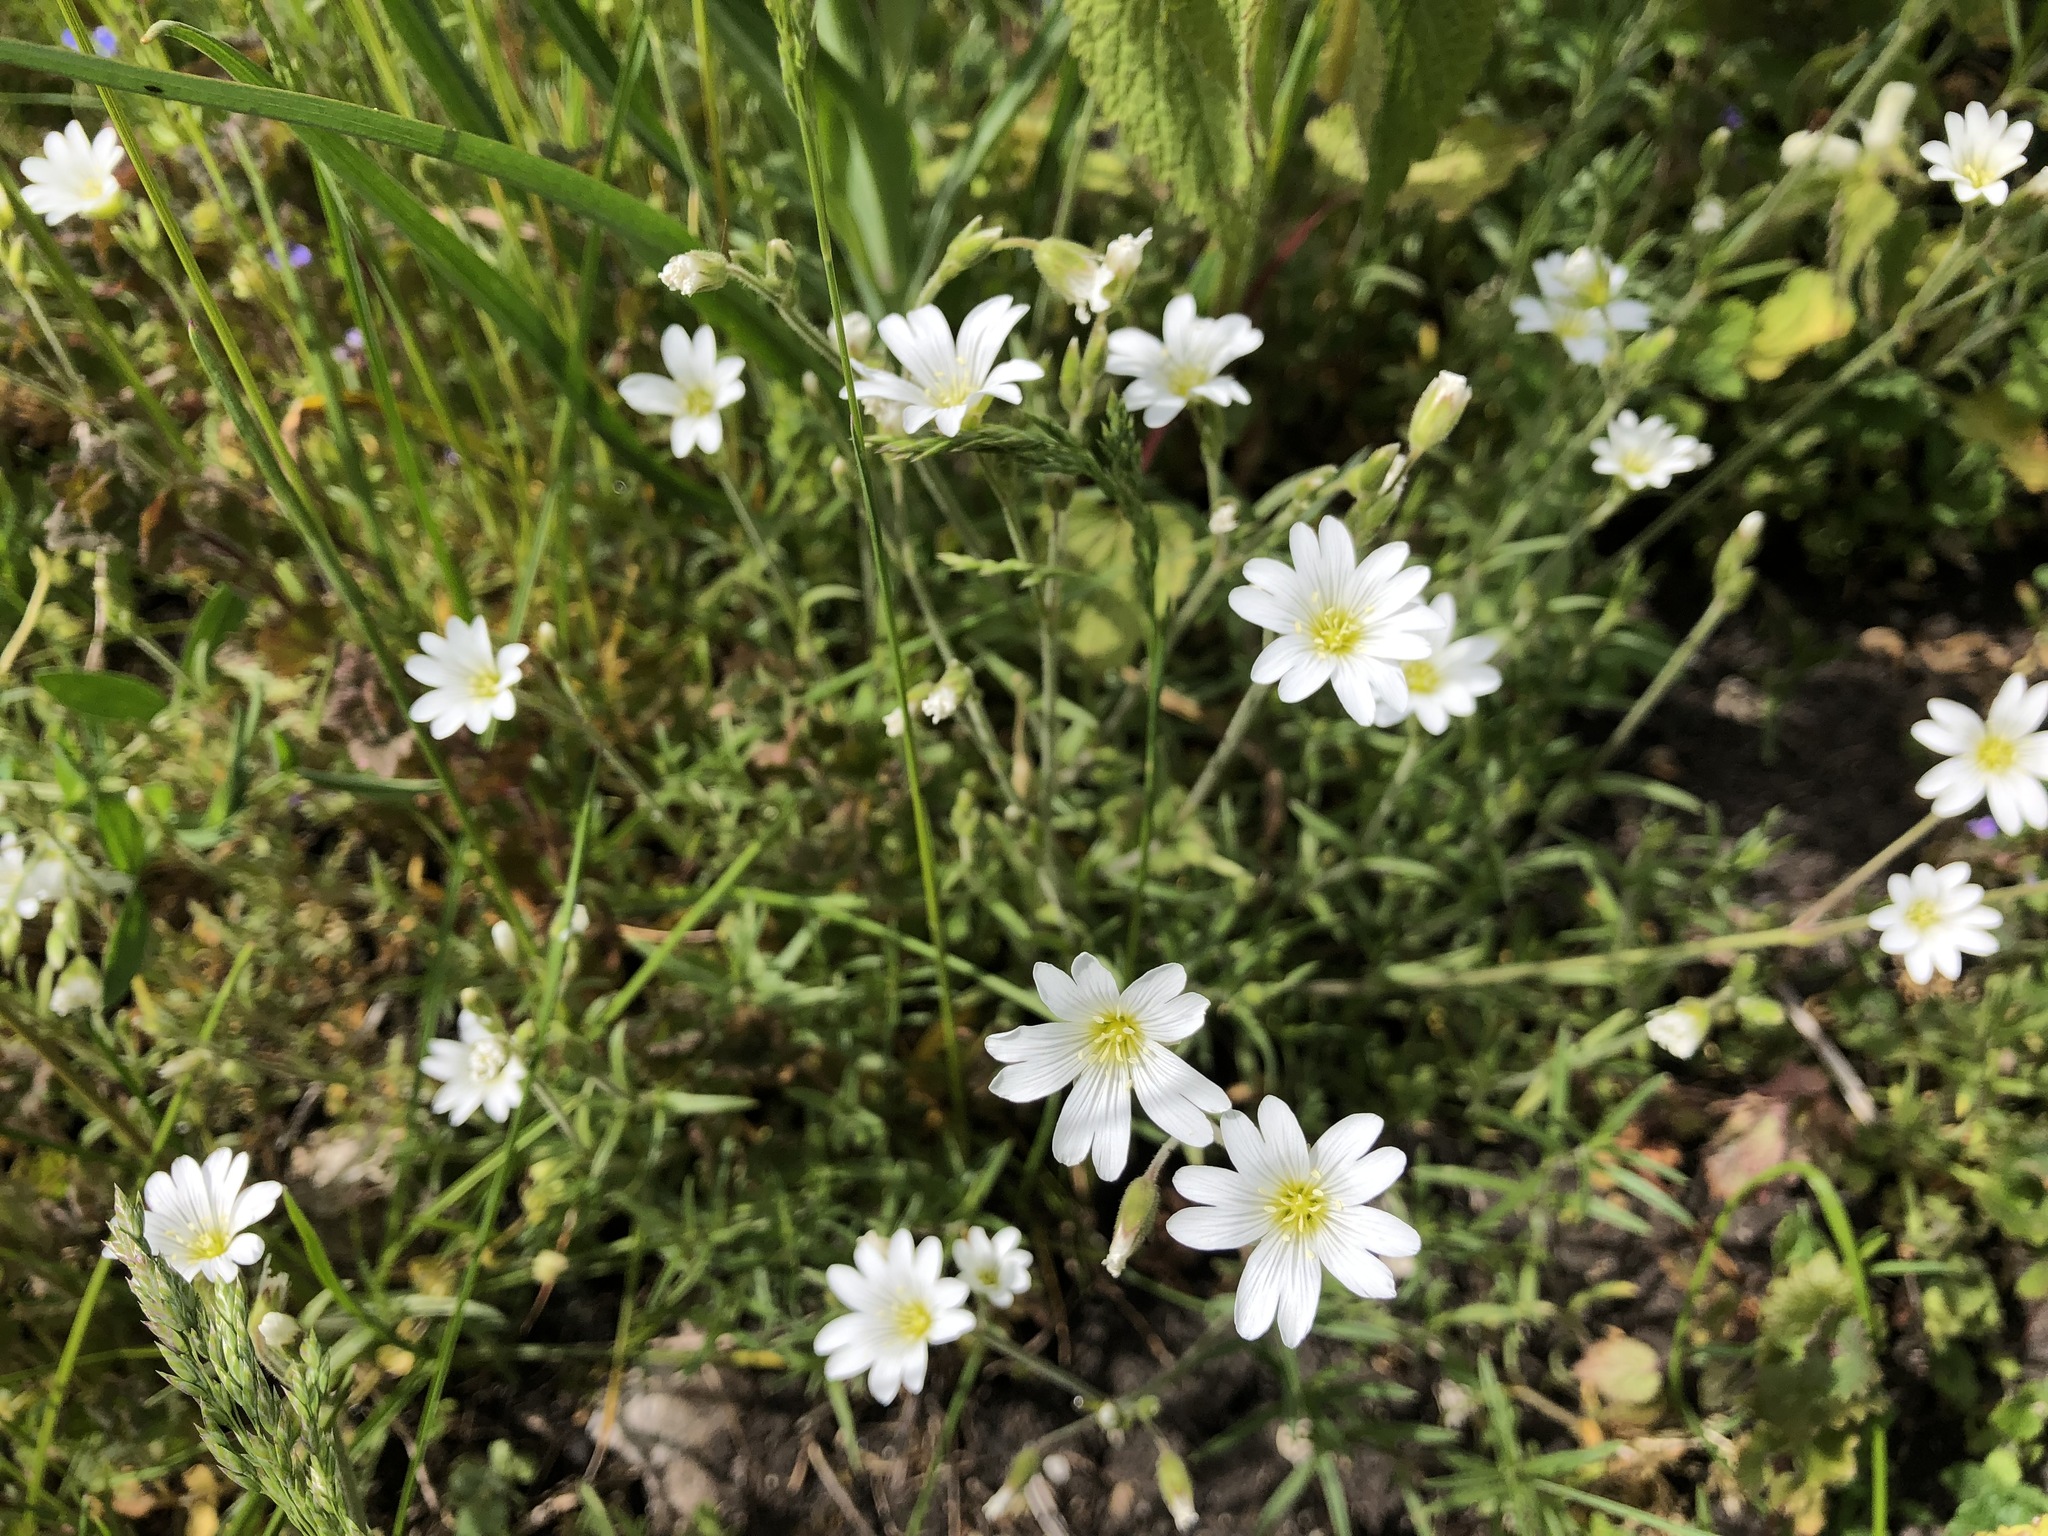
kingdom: Plantae
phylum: Tracheophyta
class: Magnoliopsida
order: Caryophyllales
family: Caryophyllaceae
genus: Cerastium
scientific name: Cerastium arvense
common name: Field mouse-ear
